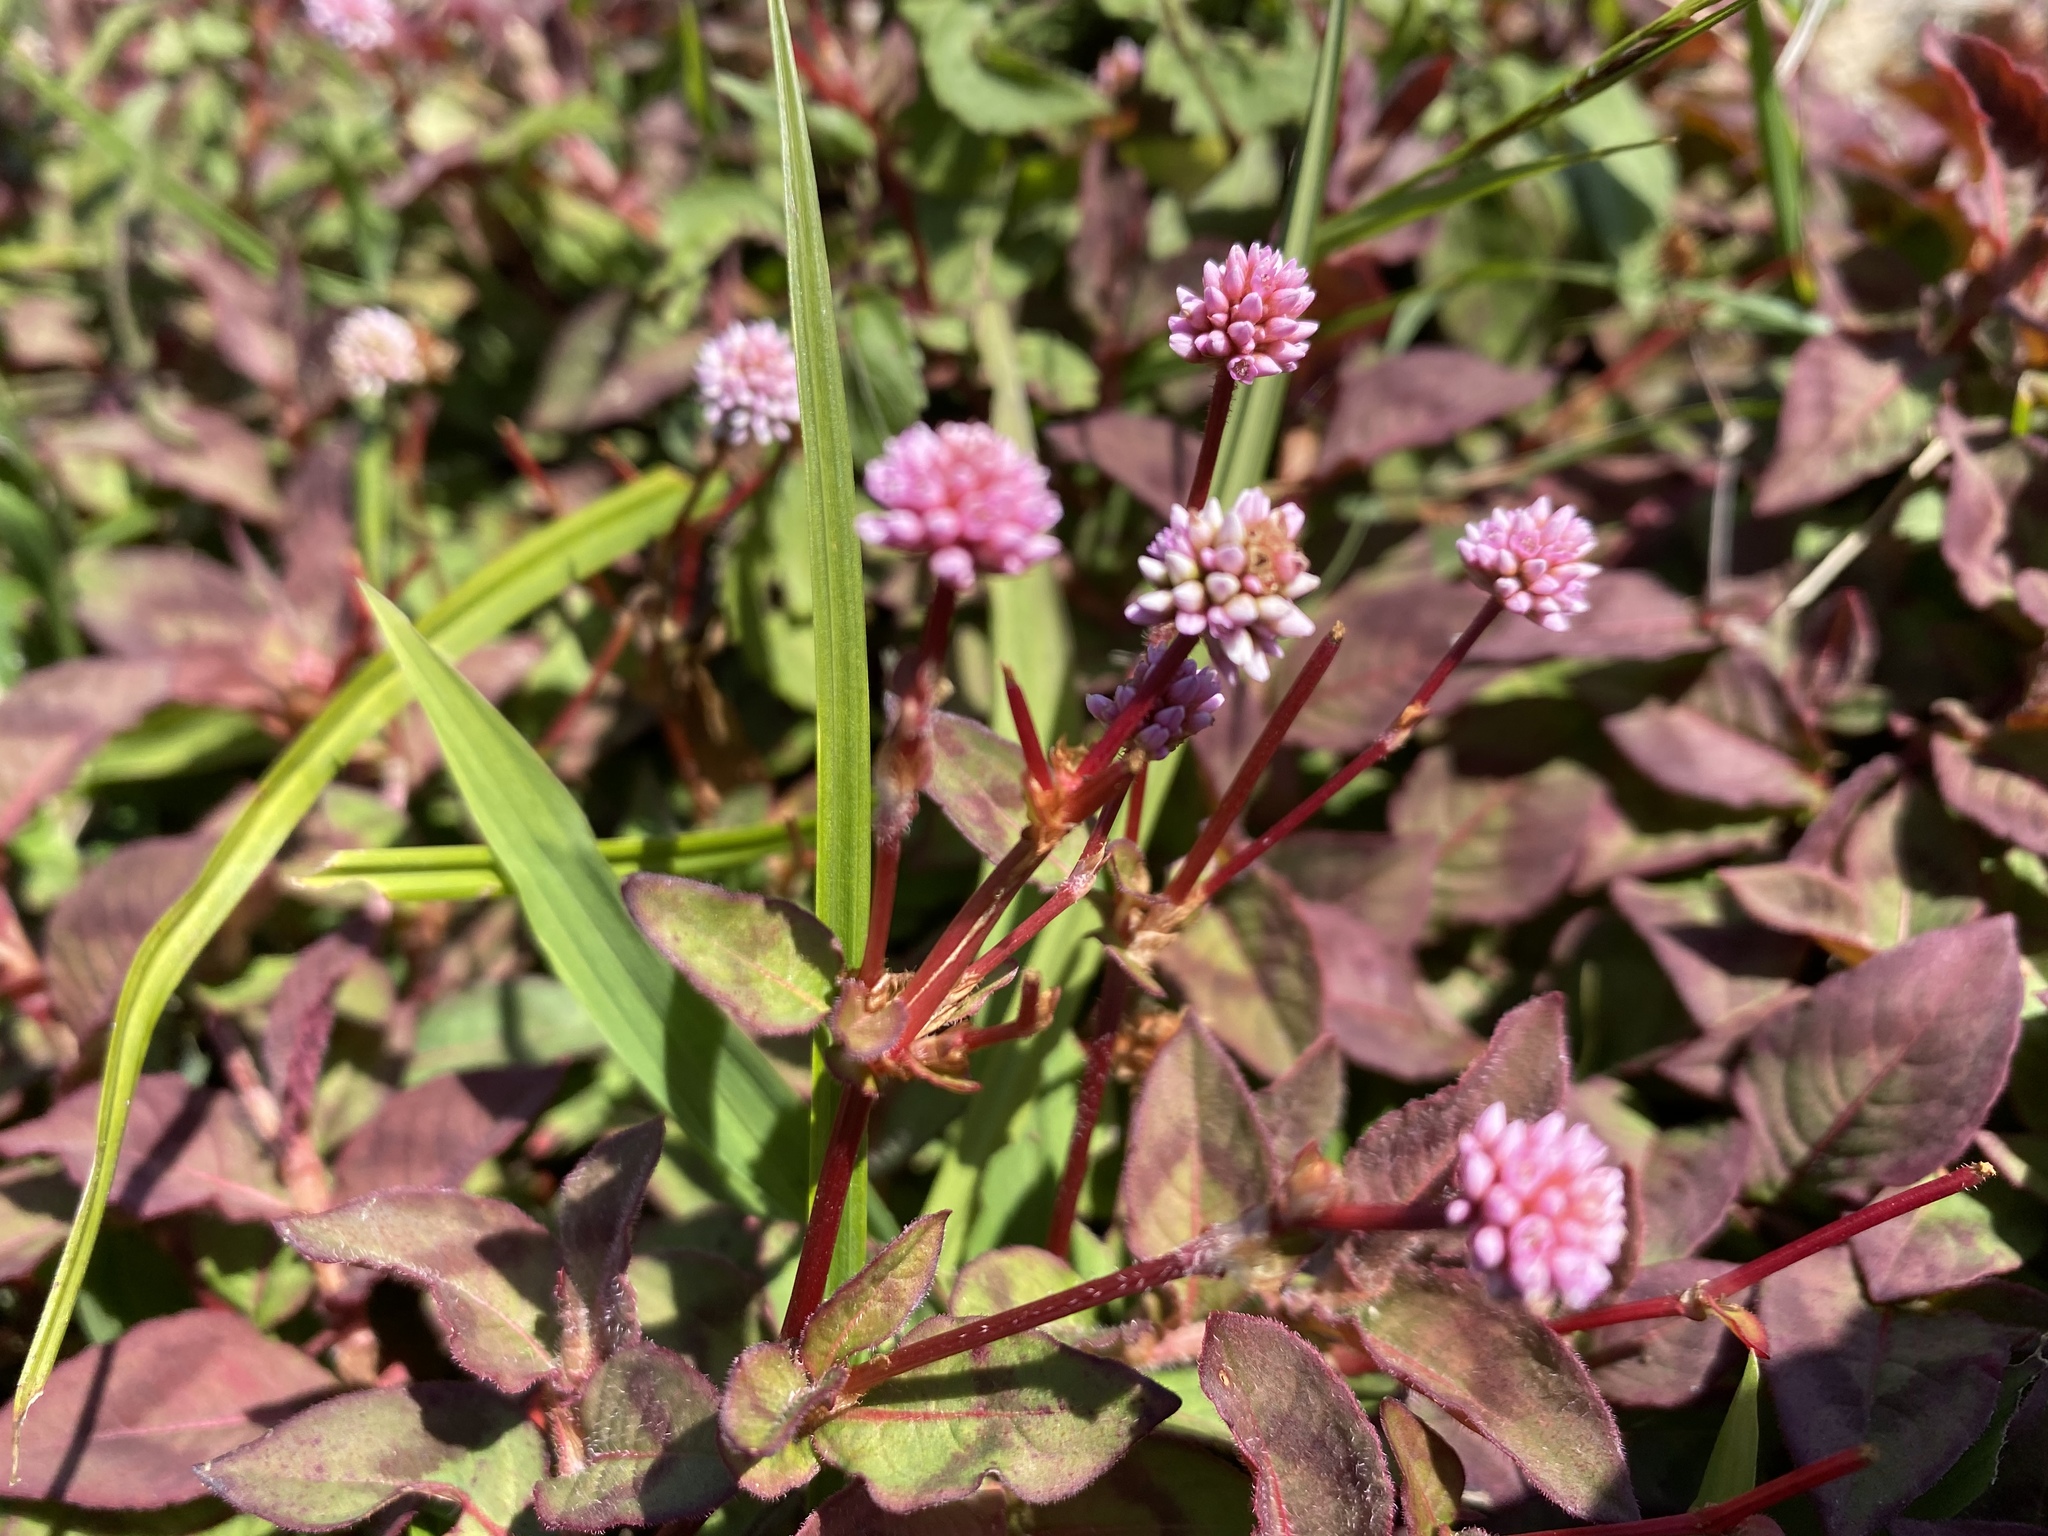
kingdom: Plantae
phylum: Tracheophyta
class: Magnoliopsida
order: Caryophyllales
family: Polygonaceae
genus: Persicaria
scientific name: Persicaria capitata
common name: Pinkhead smartweed
